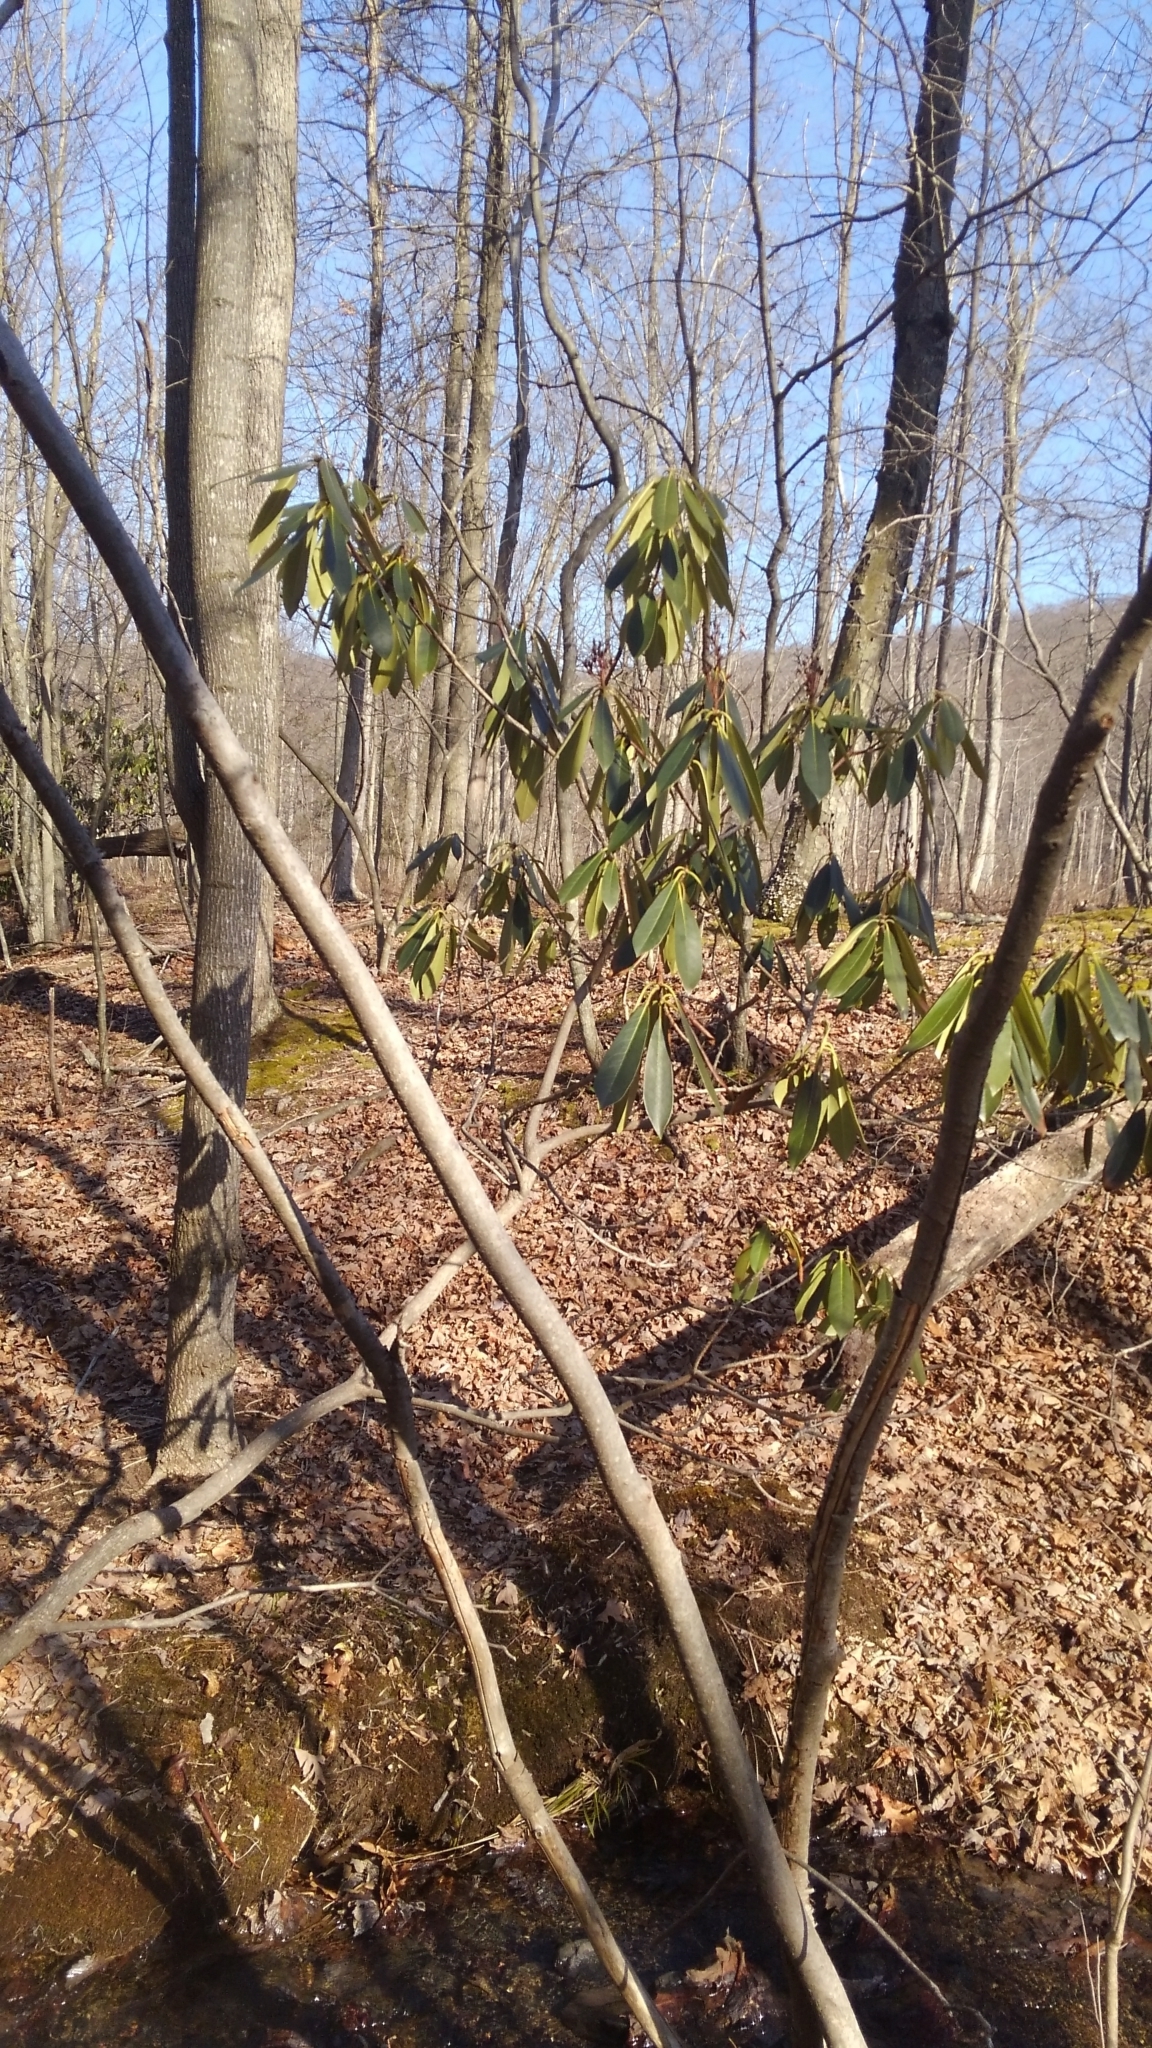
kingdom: Plantae
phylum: Tracheophyta
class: Magnoliopsida
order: Ericales
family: Ericaceae
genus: Rhododendron
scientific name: Rhododendron maximum
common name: Great rhododendron
